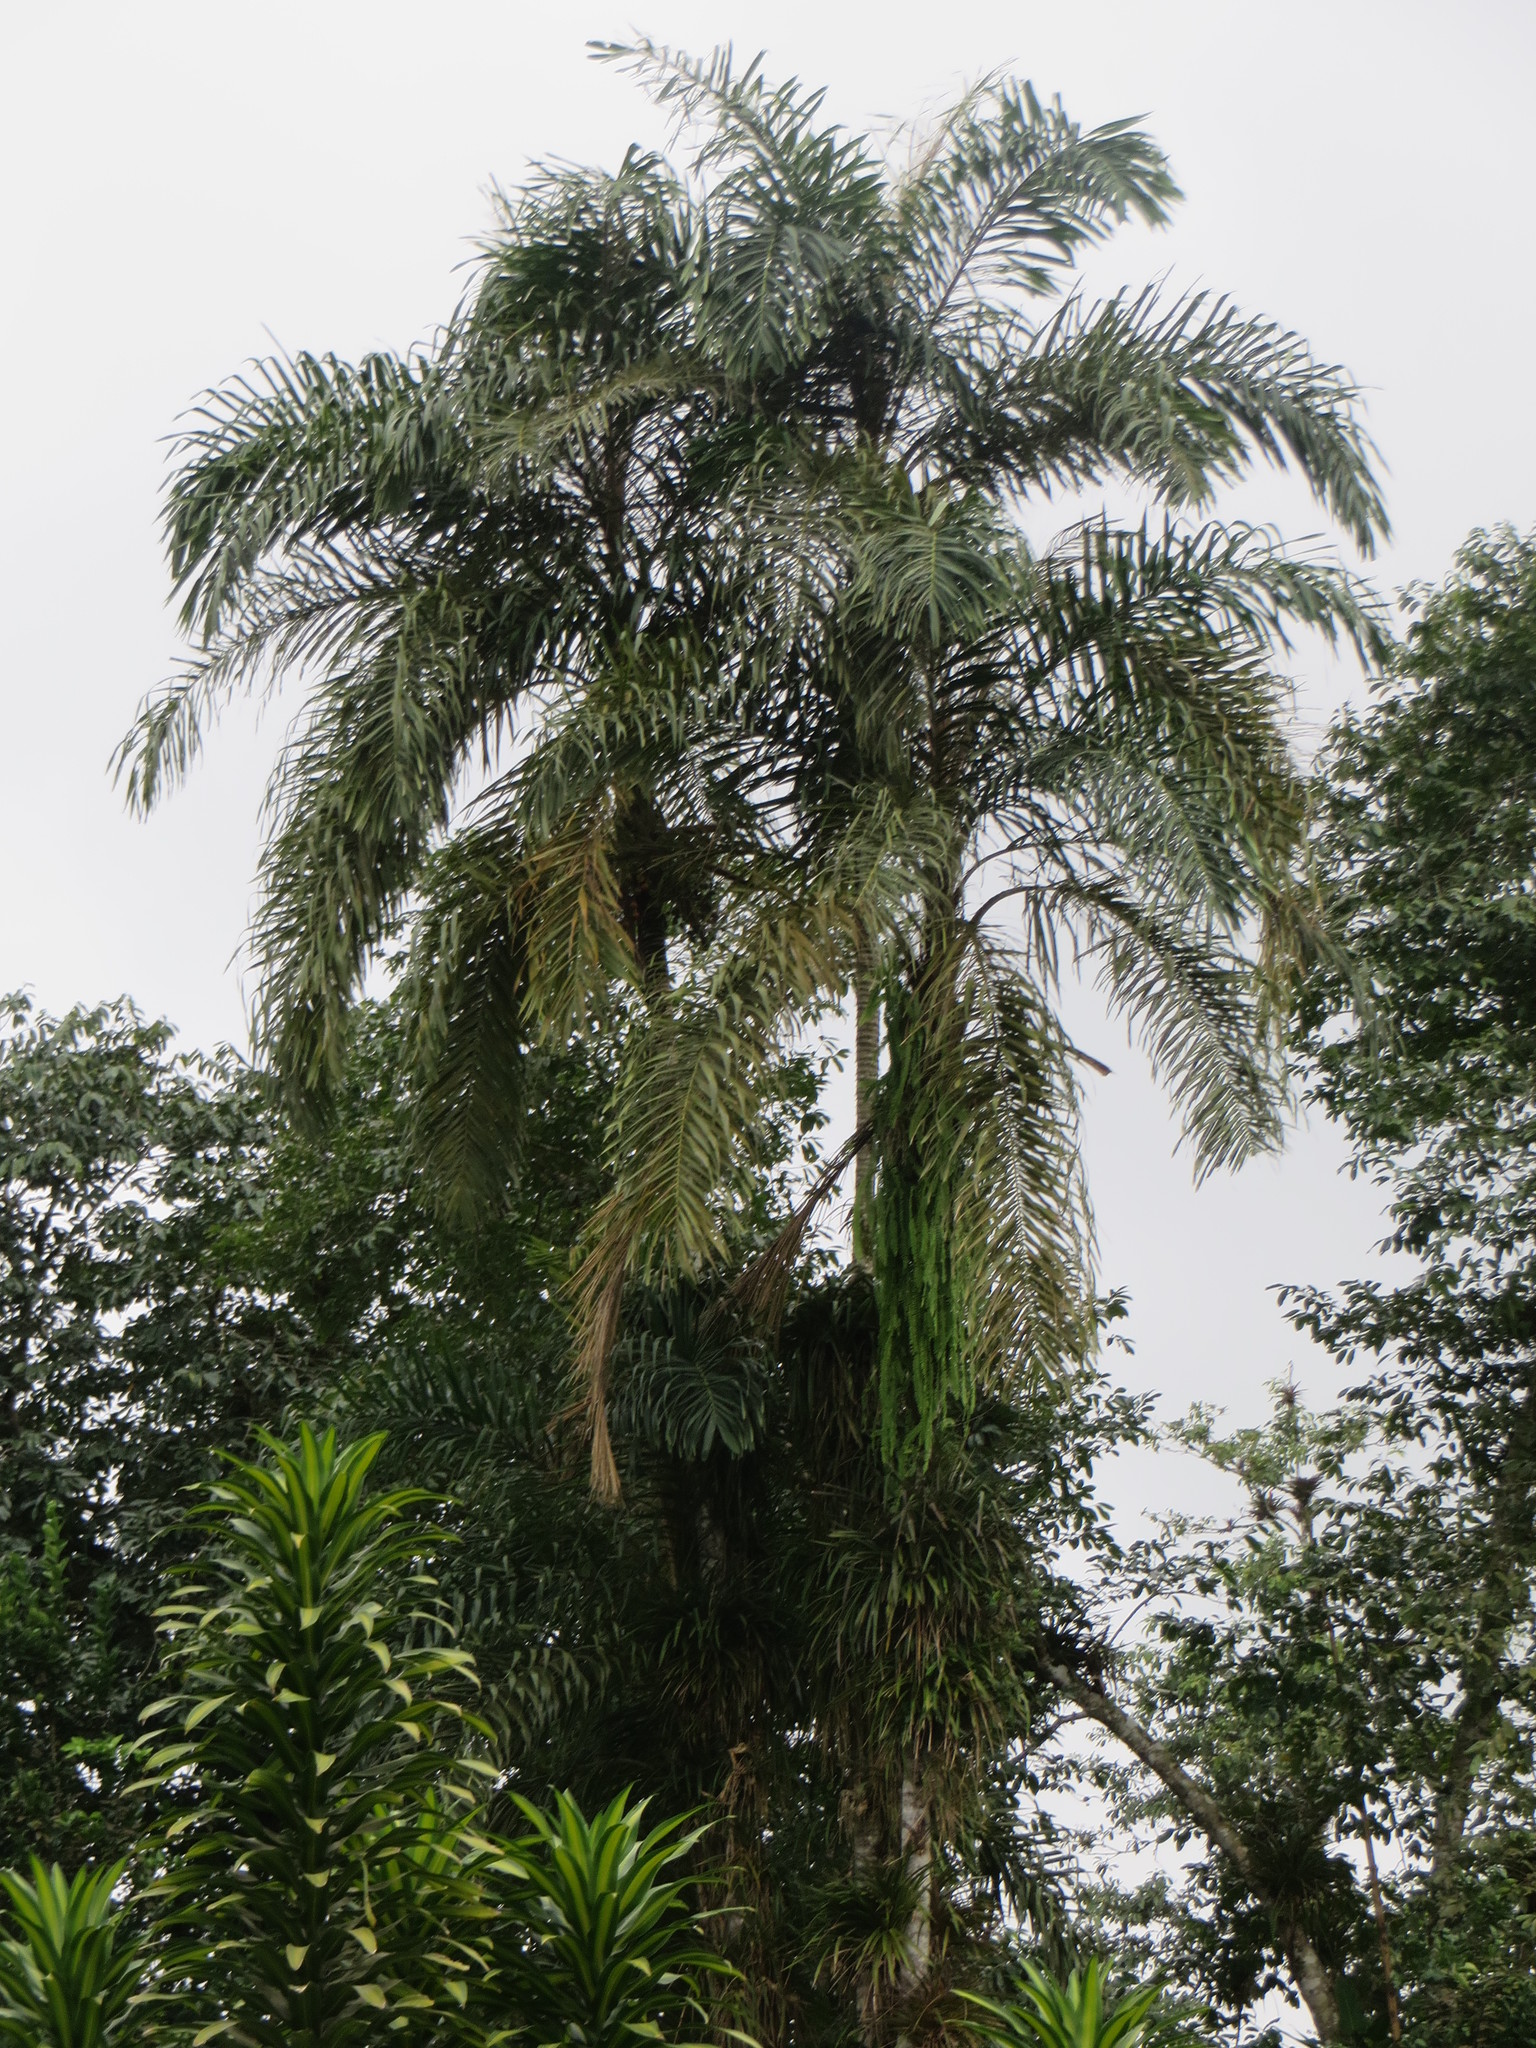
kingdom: Plantae
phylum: Tracheophyta
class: Liliopsida
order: Arecales
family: Arecaceae
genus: Bactris
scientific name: Bactris gasipaes
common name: Peach palm
